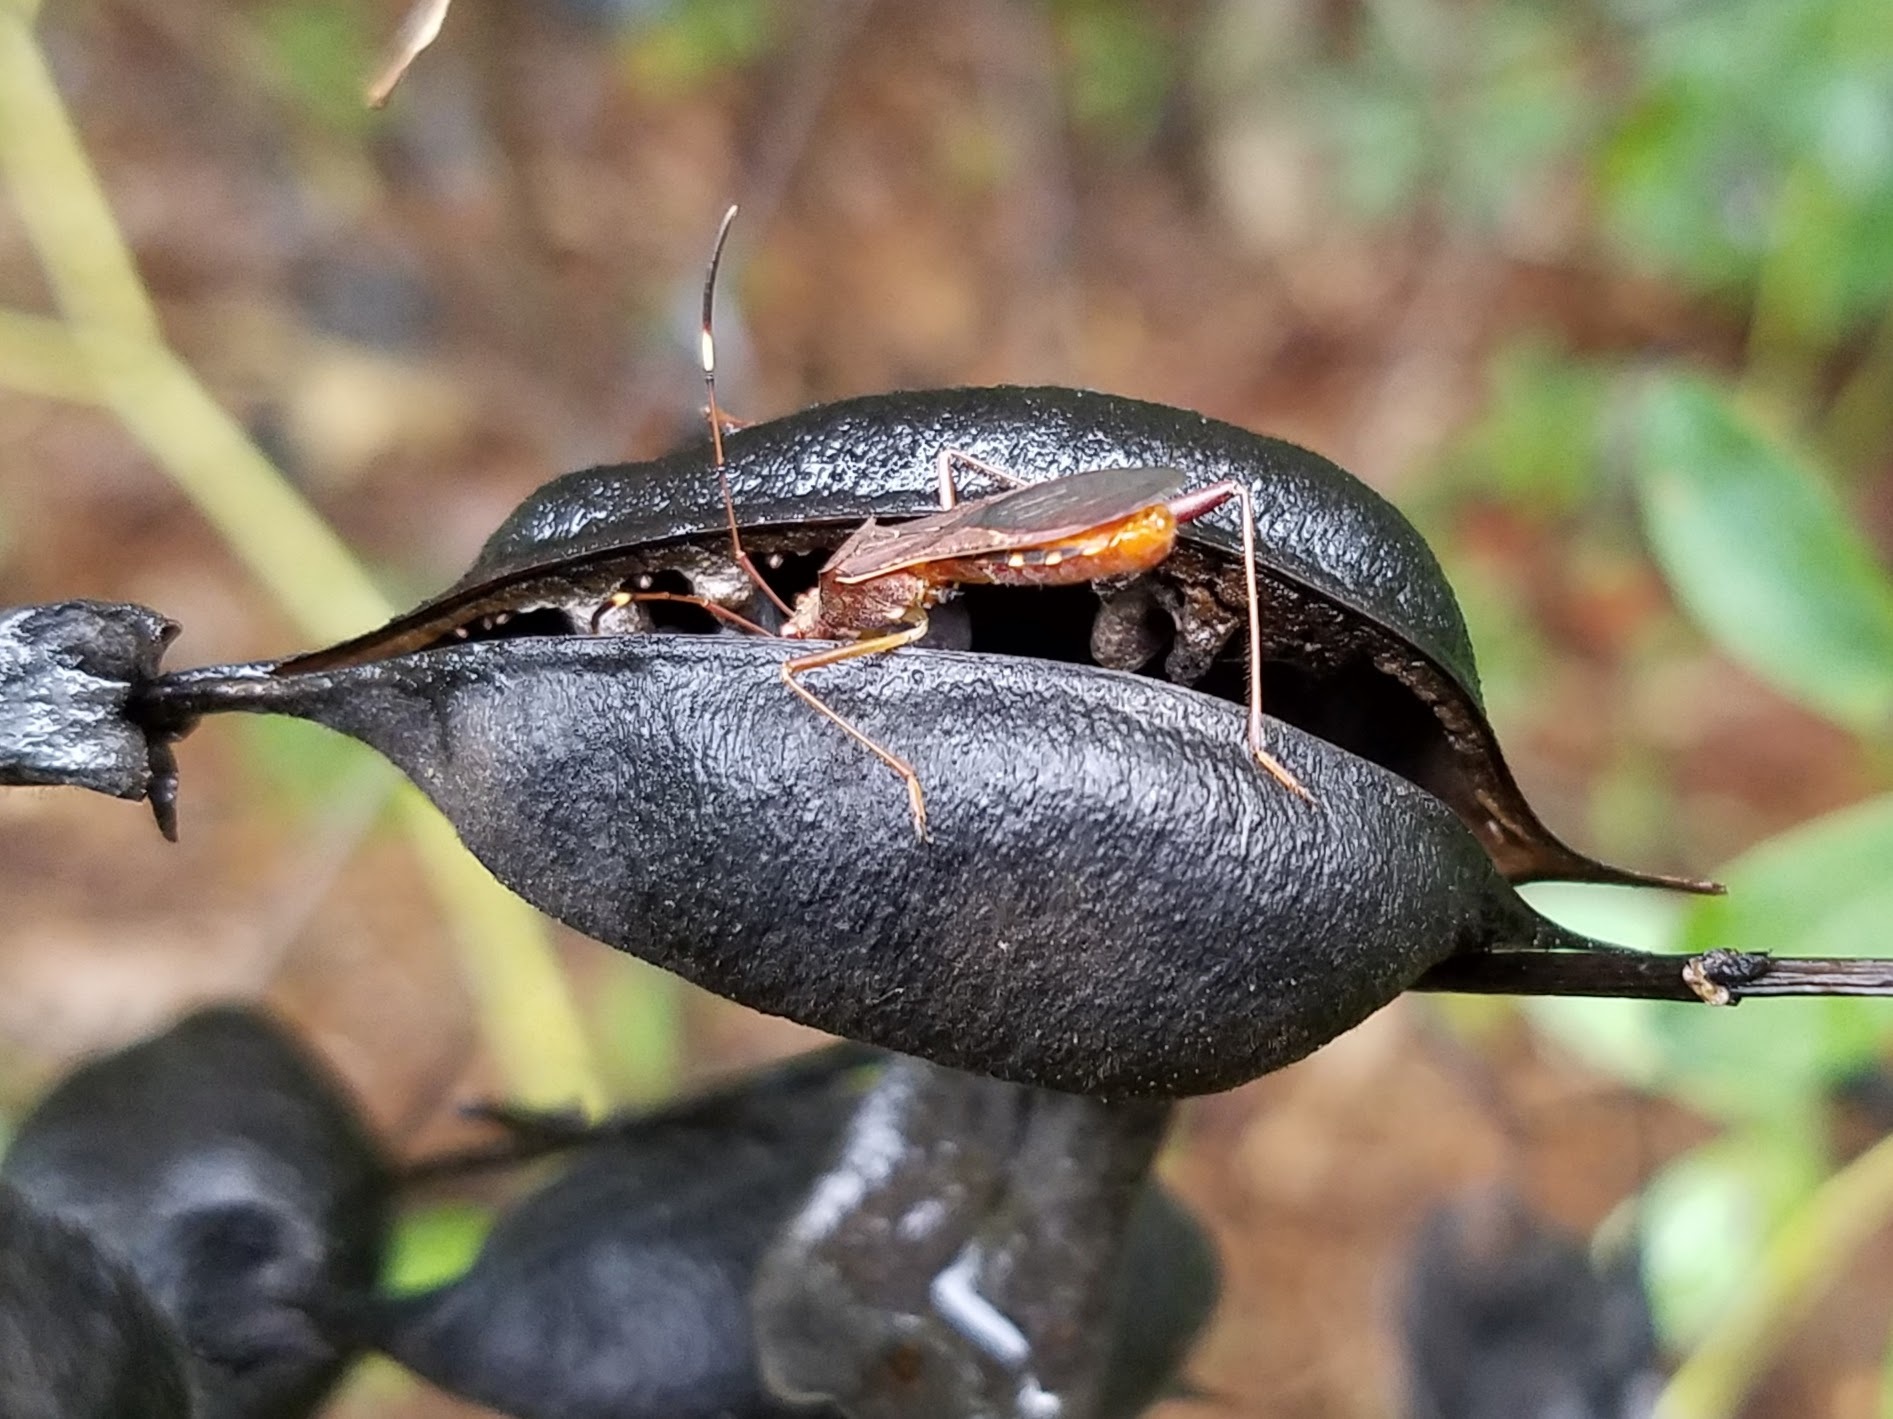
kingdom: Animalia
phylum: Arthropoda
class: Insecta
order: Hemiptera
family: Alydidae
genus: Megalotomus
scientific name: Megalotomus quinquespinosus
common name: Lupine bug
